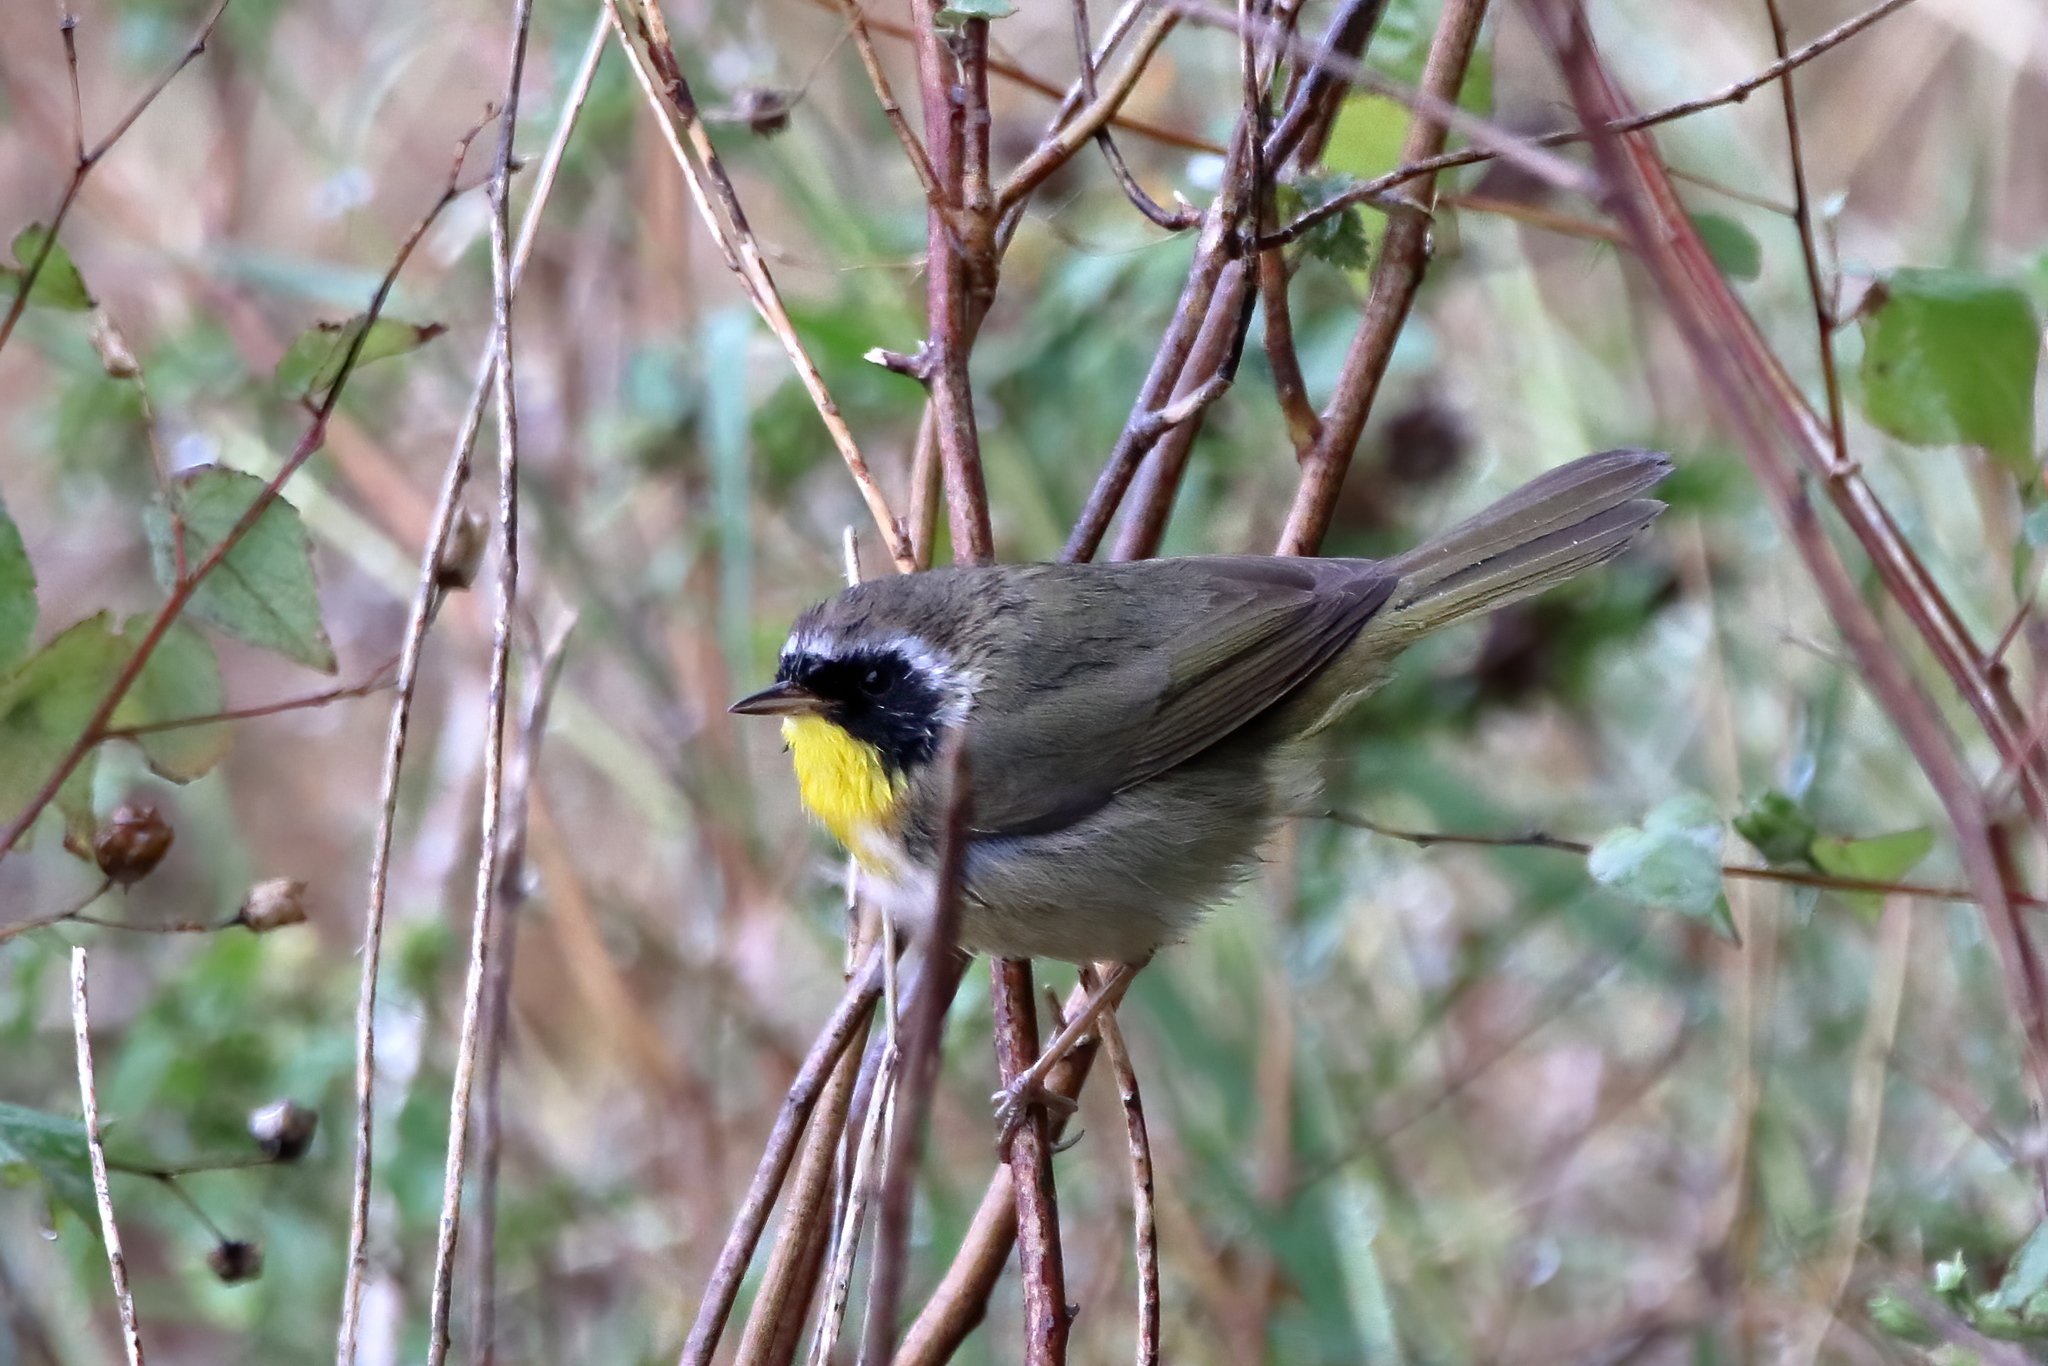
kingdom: Animalia
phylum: Chordata
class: Aves
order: Passeriformes
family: Parulidae
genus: Geothlypis
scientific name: Geothlypis trichas
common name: Common yellowthroat
